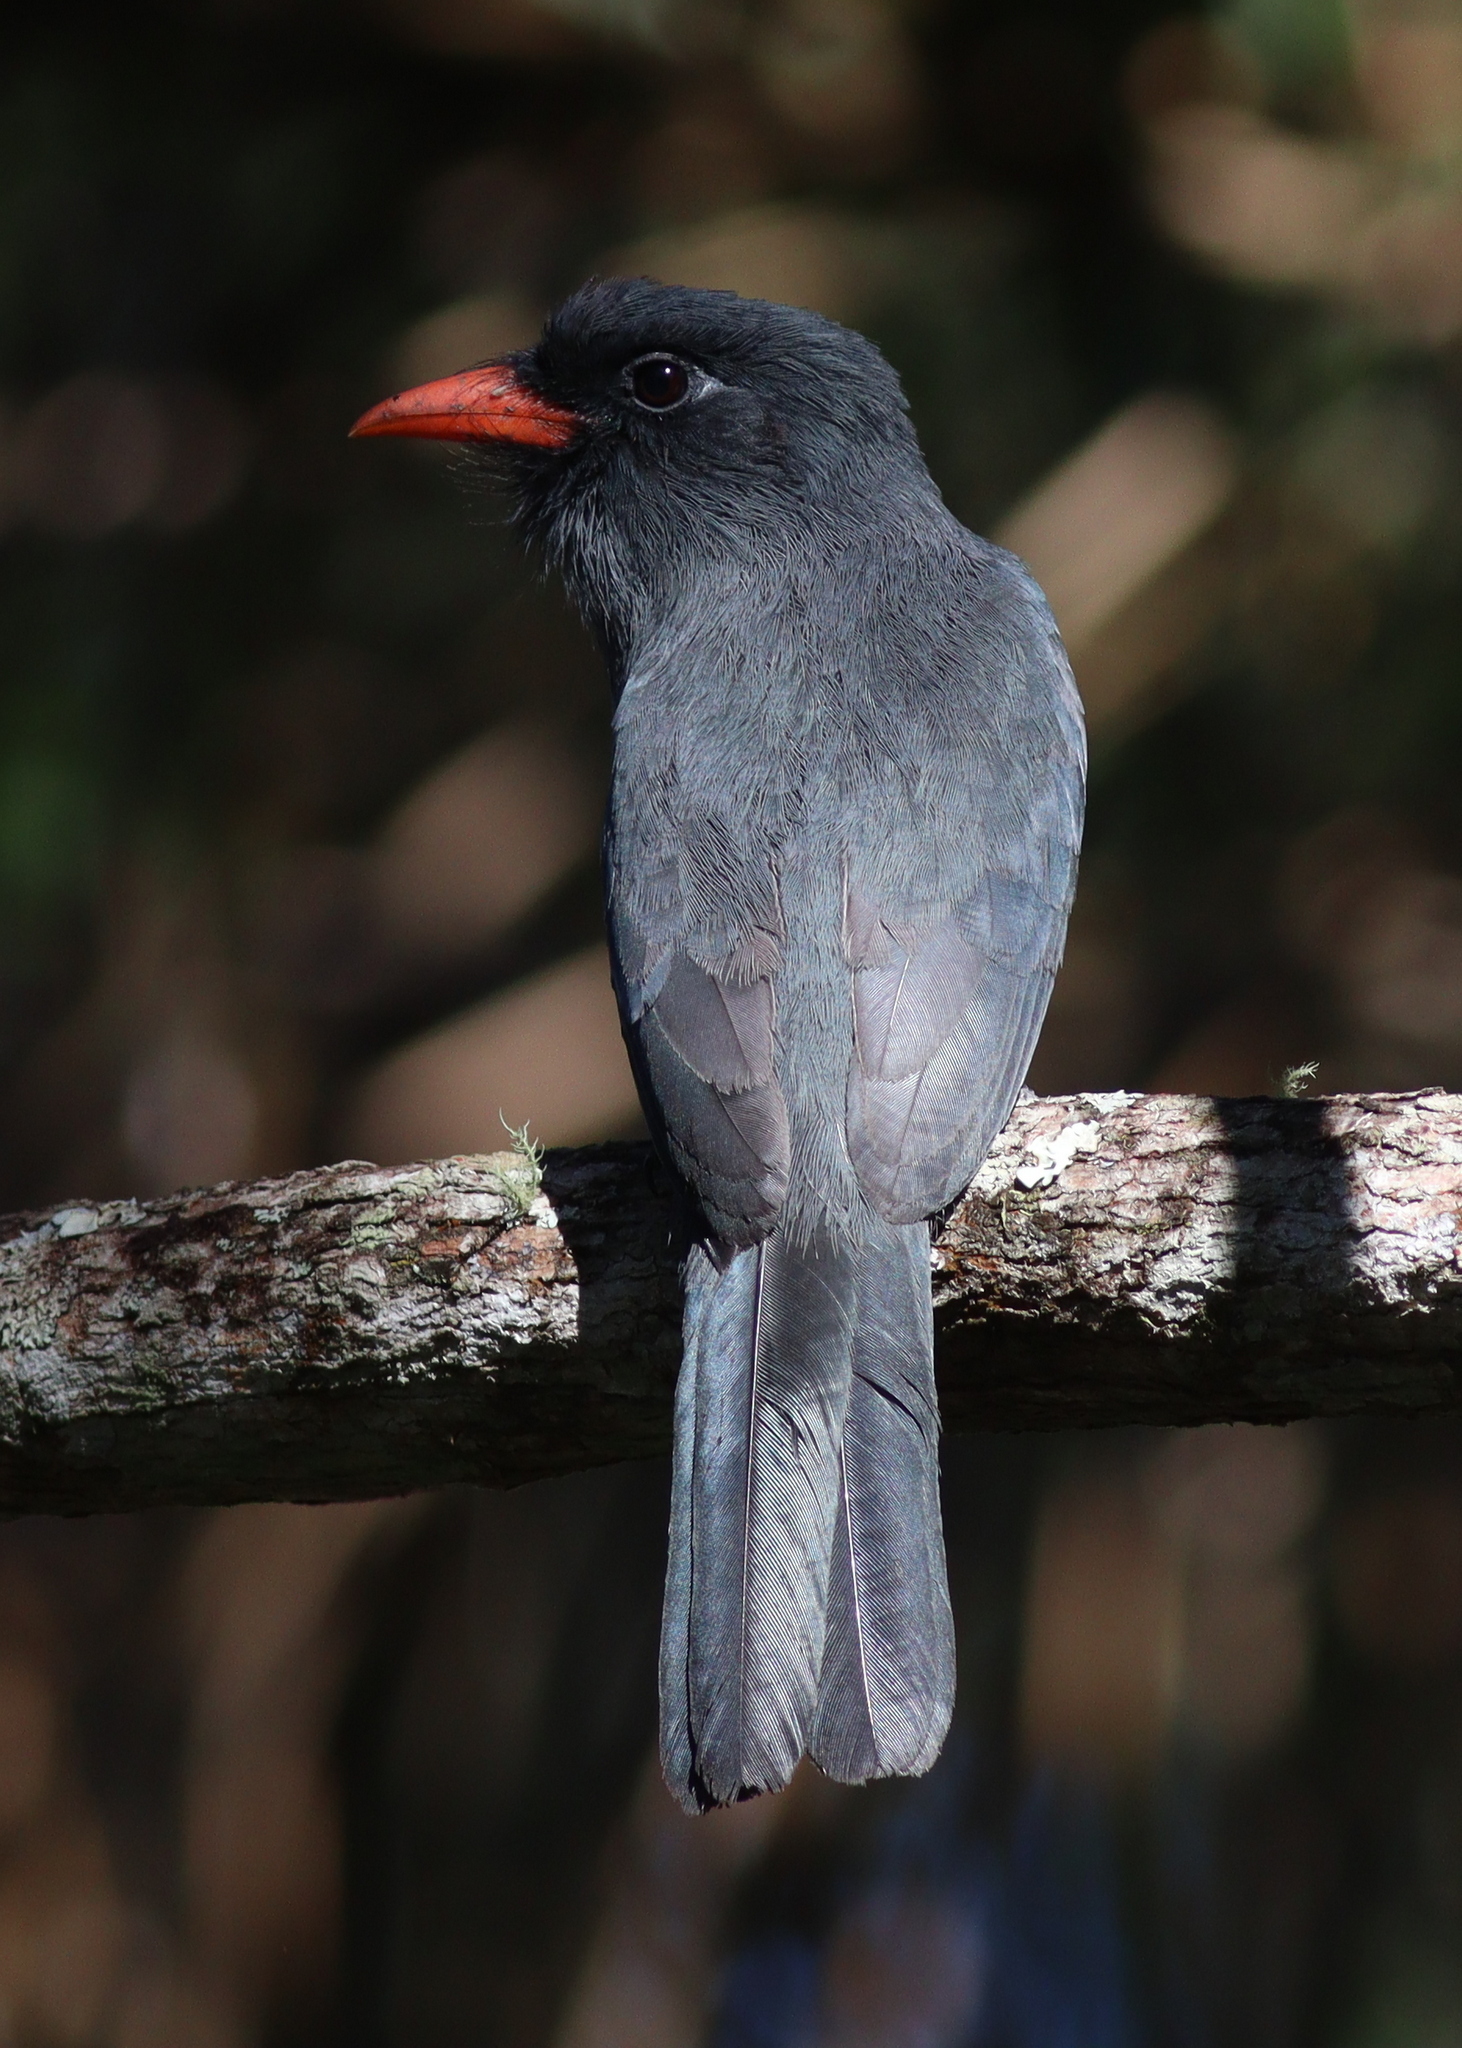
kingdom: Animalia
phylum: Chordata
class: Aves
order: Piciformes
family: Bucconidae
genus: Monasa
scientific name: Monasa nigrifrons
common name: Black-fronted nunbird
